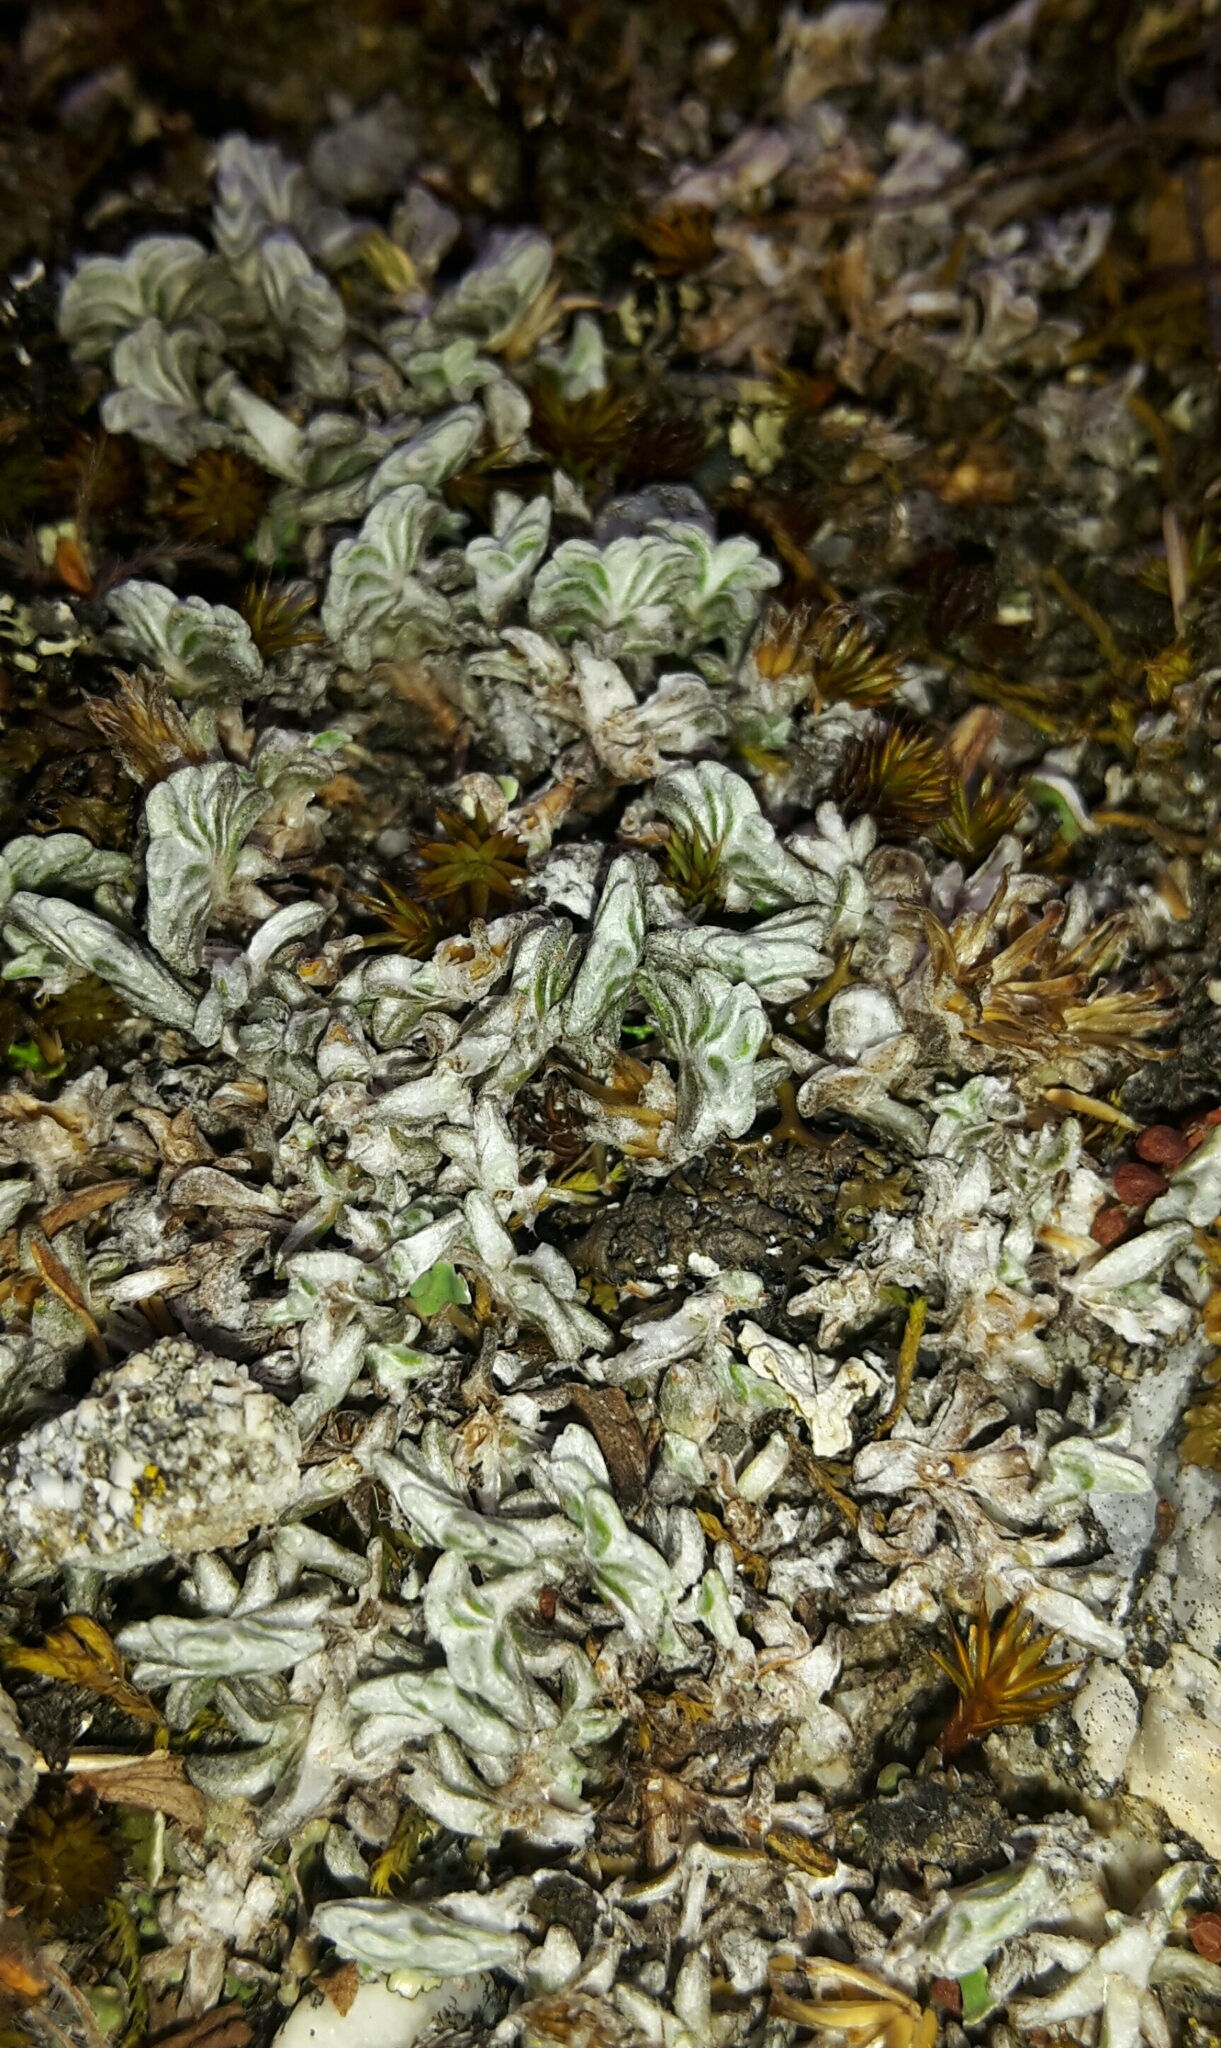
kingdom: Plantae
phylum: Tracheophyta
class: Magnoliopsida
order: Asterales
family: Asteraceae
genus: Raoulia
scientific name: Raoulia monroi
